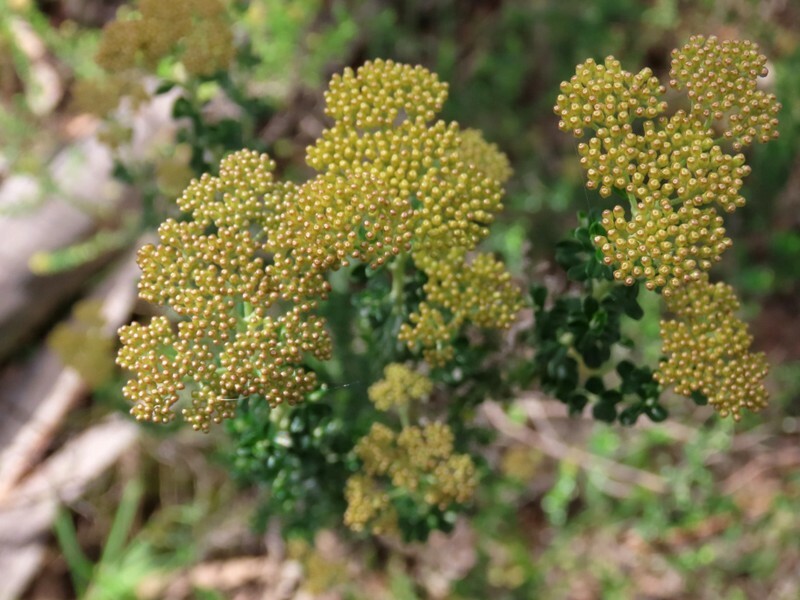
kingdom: Plantae
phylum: Tracheophyta
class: Magnoliopsida
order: Asterales
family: Asteraceae
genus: Ozothamnus
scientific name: Ozothamnus obcordatus
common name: Grey everlasting
